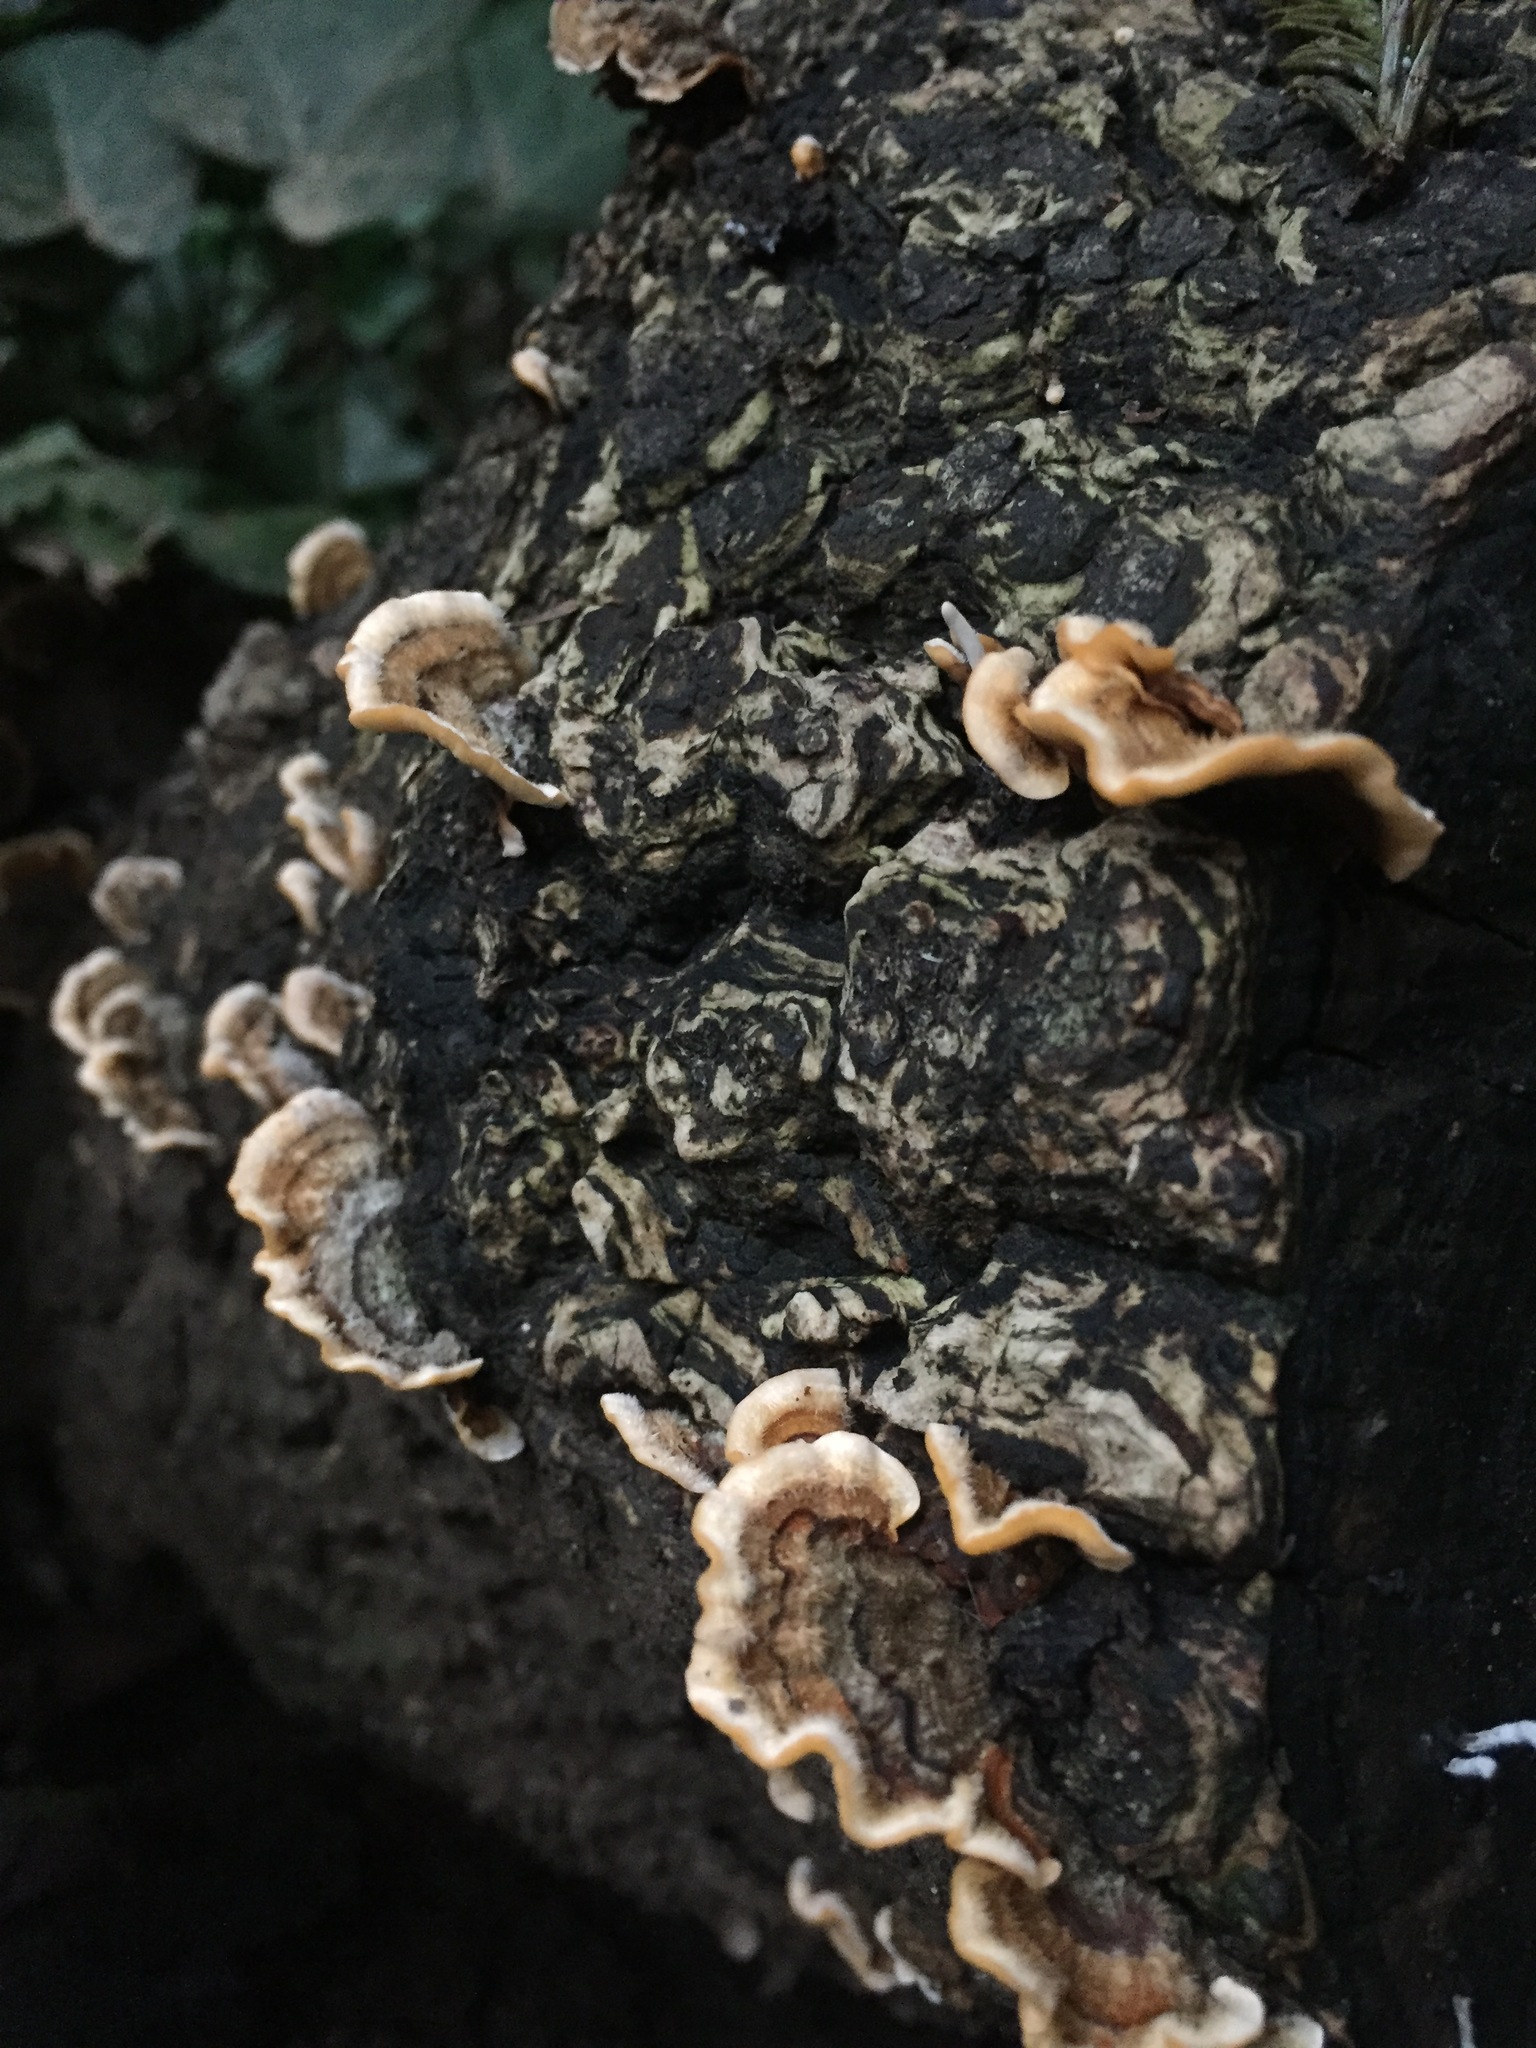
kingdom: Fungi
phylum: Basidiomycota
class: Agaricomycetes
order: Russulales
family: Stereaceae
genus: Stereum
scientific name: Stereum hirsutum
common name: Hairy curtain crust
